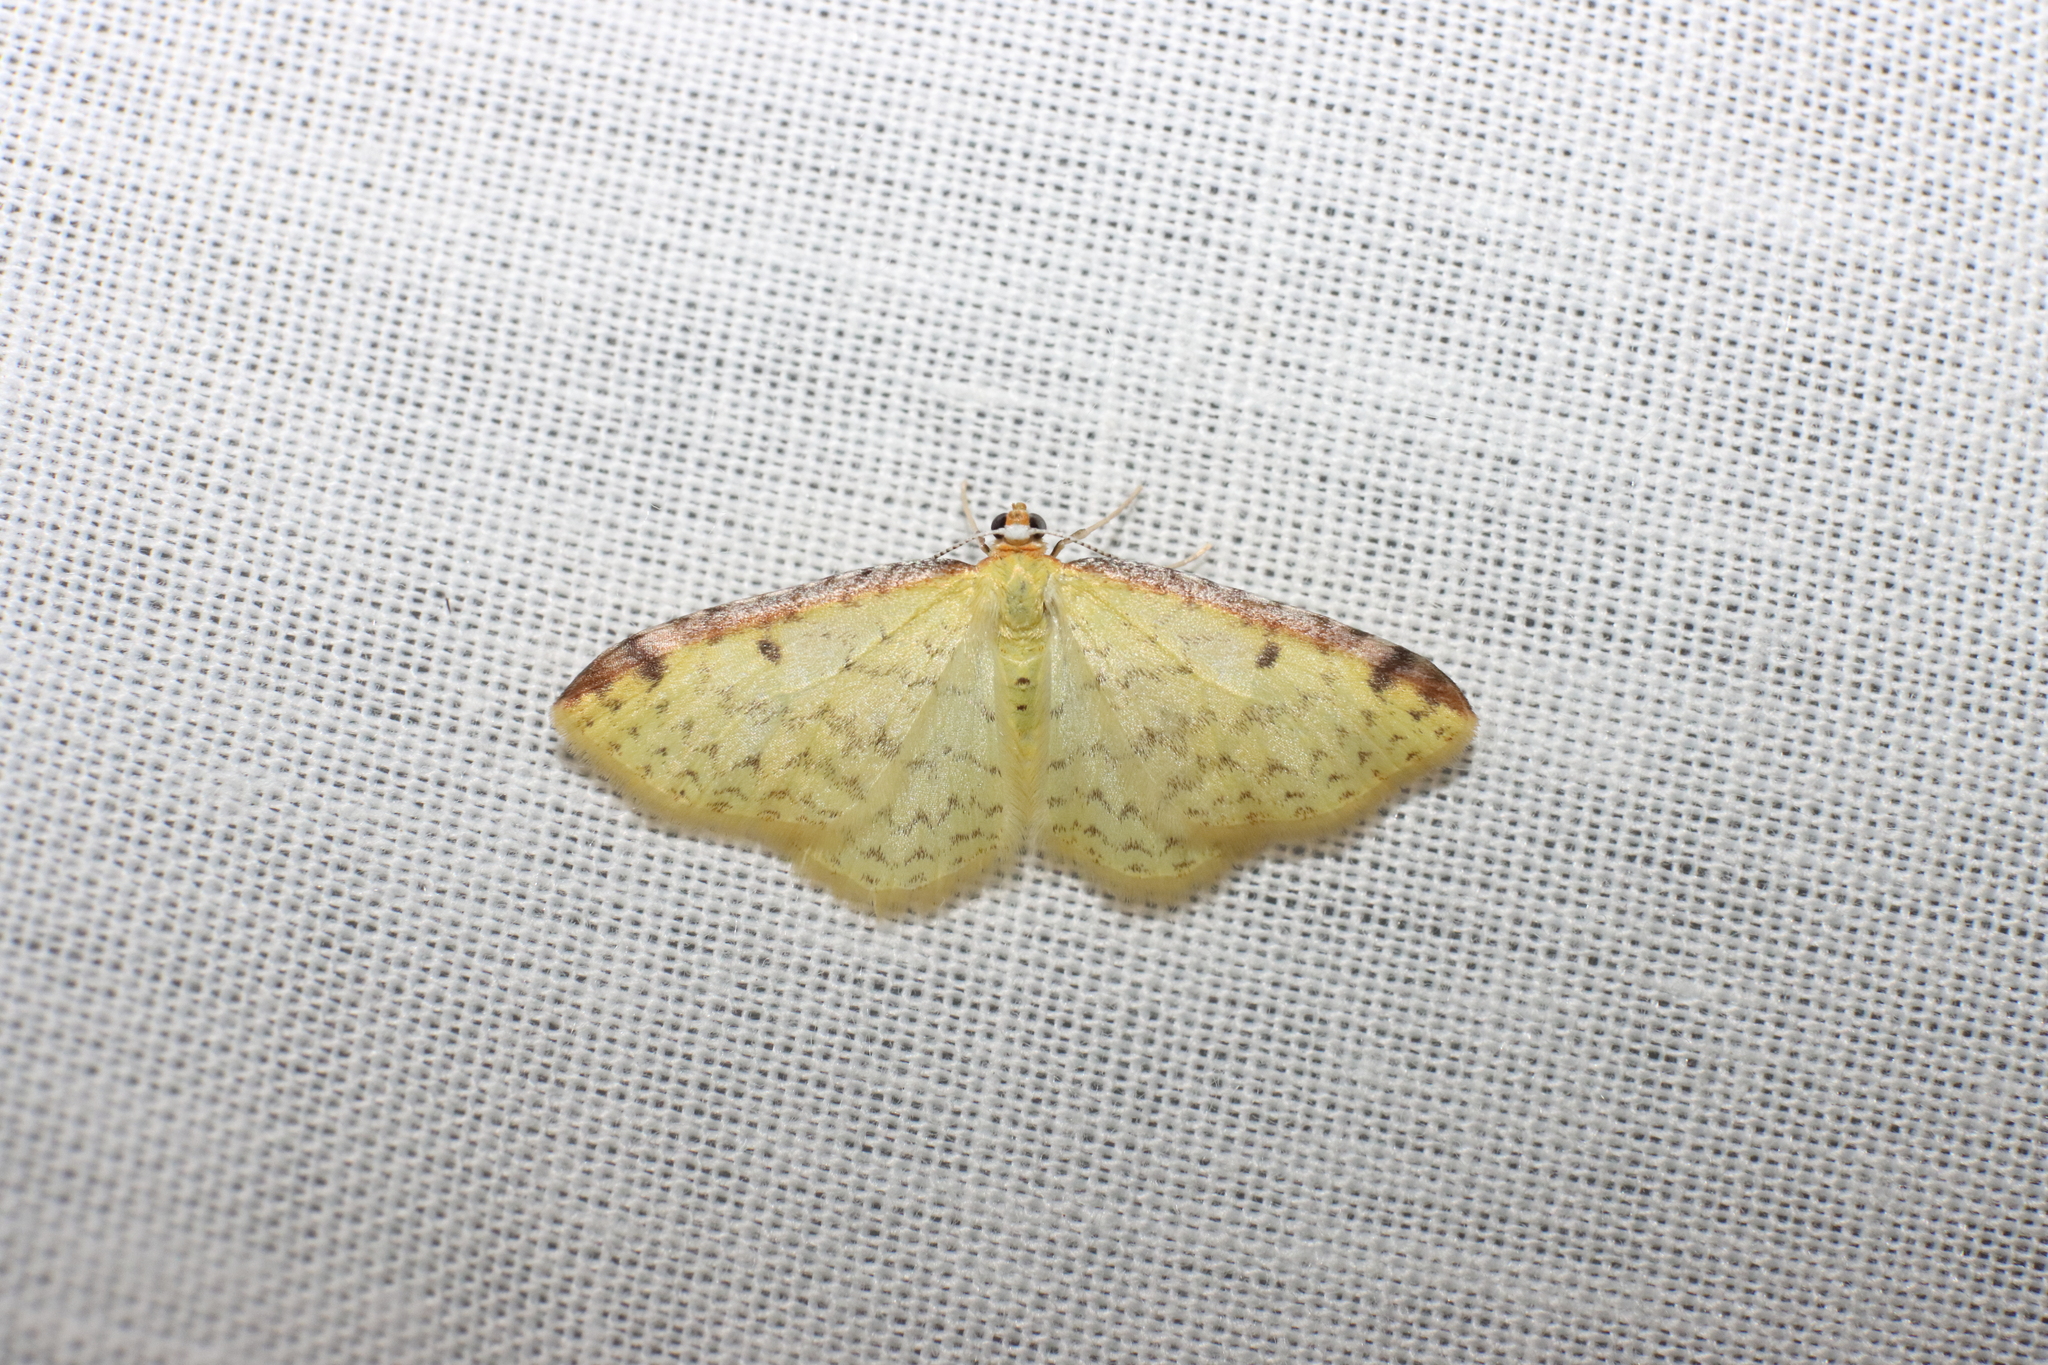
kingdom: Animalia
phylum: Arthropoda
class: Insecta
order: Lepidoptera
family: Geometridae
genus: Epiphryne
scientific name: Epiphryne undosata
